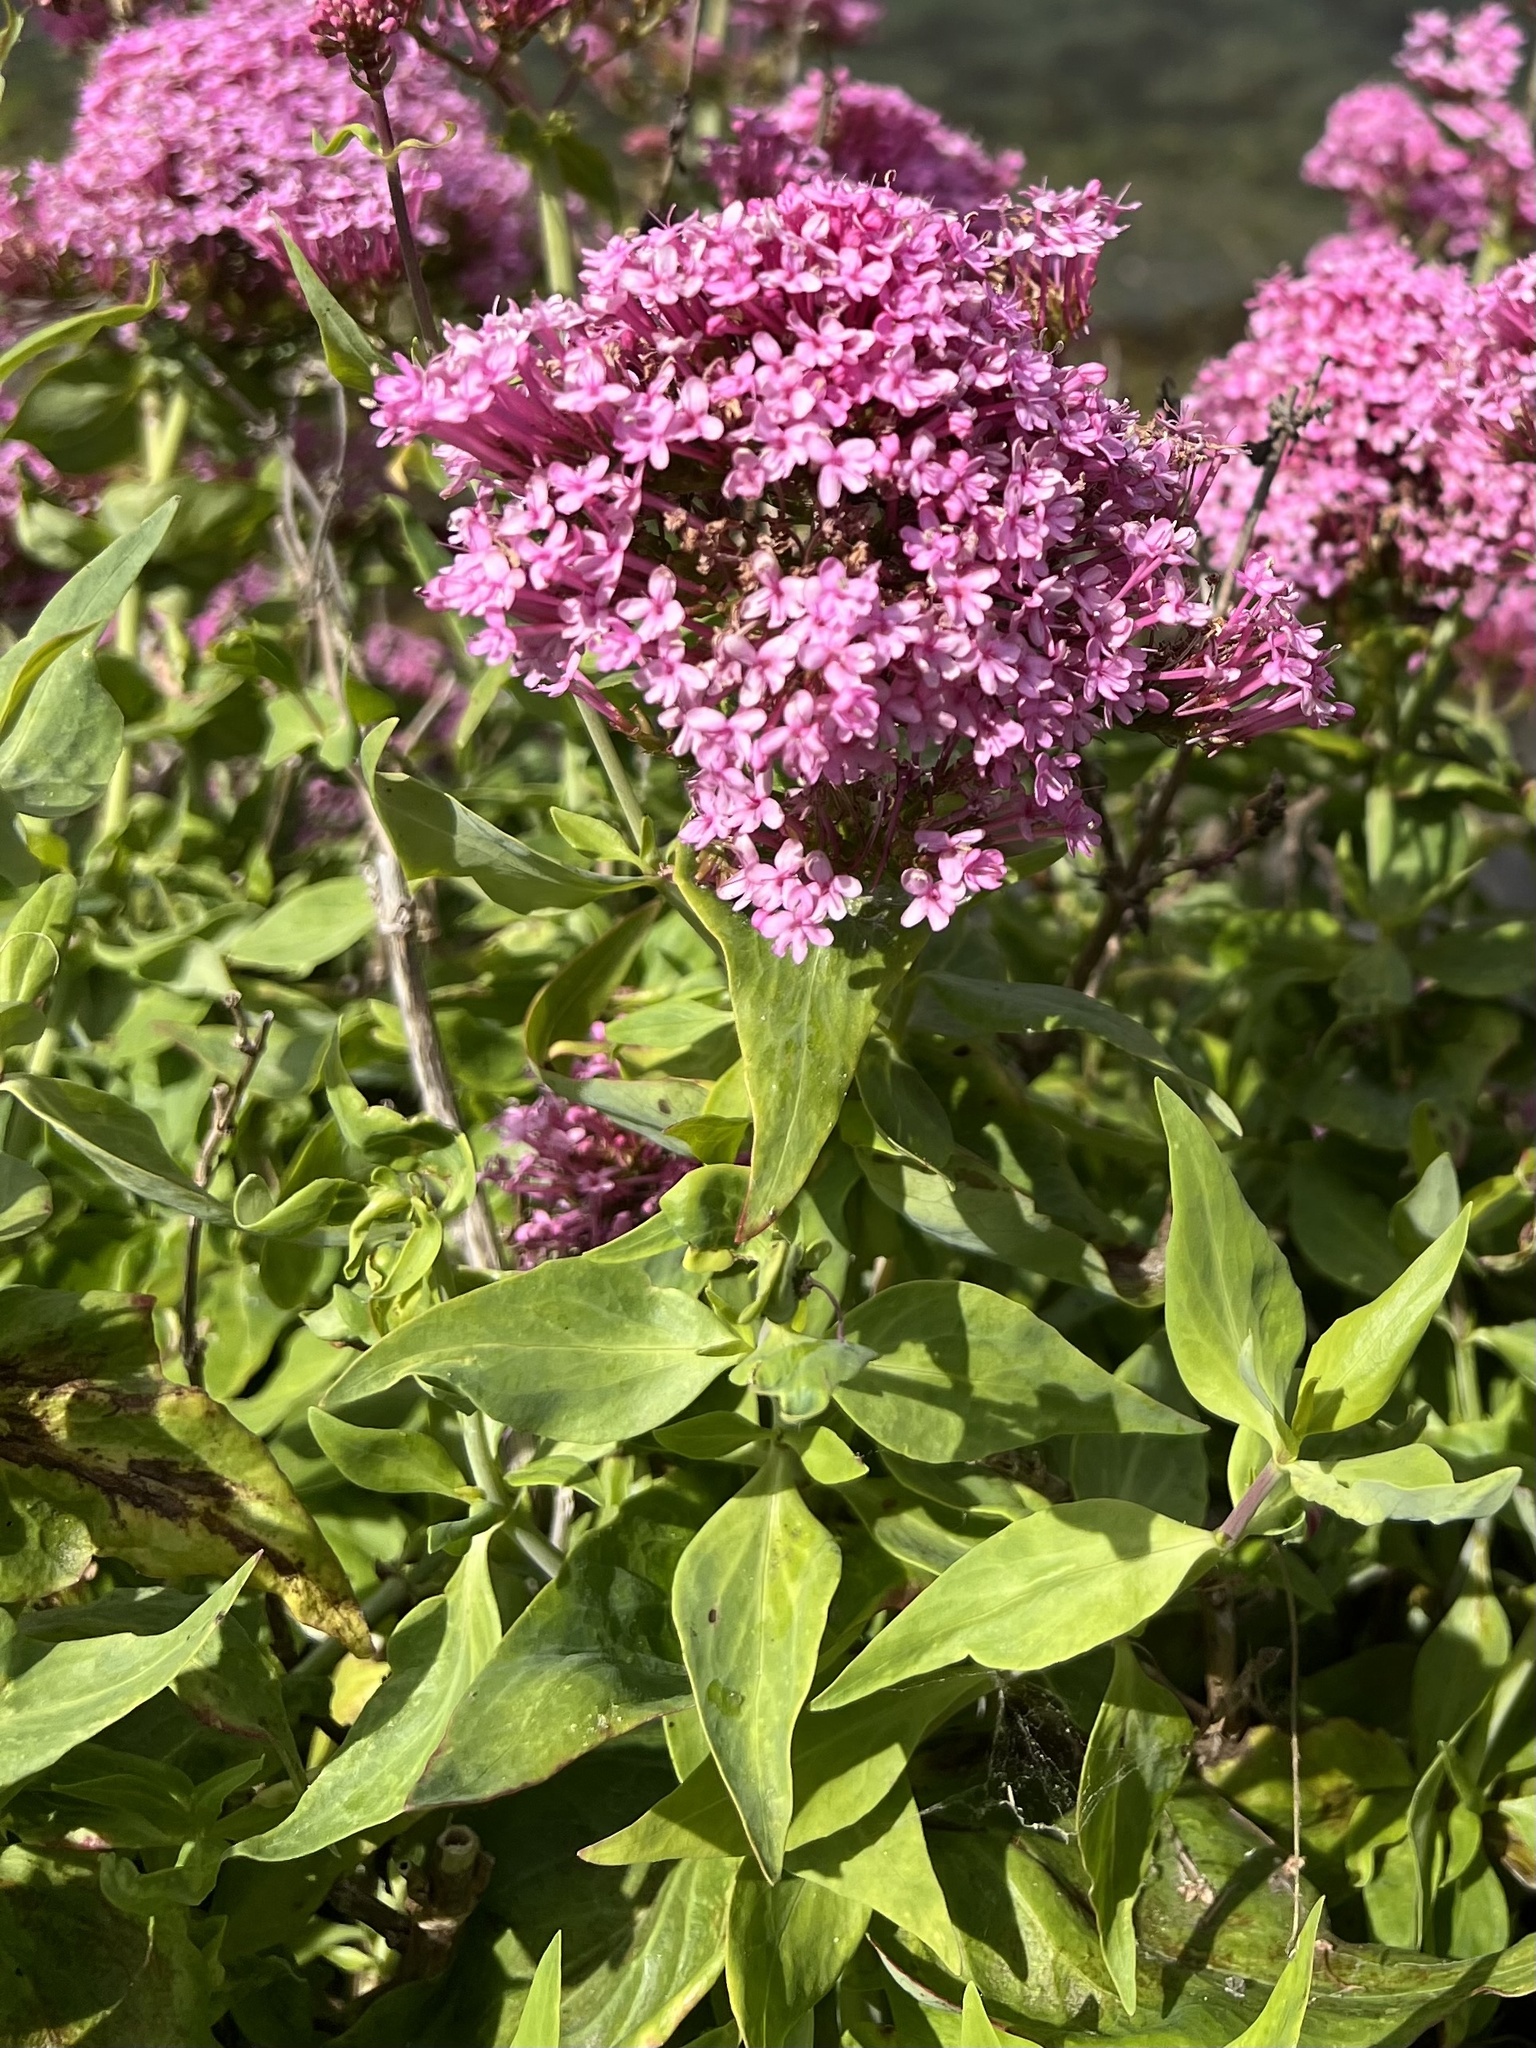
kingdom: Plantae
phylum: Tracheophyta
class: Magnoliopsida
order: Dipsacales
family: Caprifoliaceae
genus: Centranthus
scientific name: Centranthus ruber
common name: Red valerian
